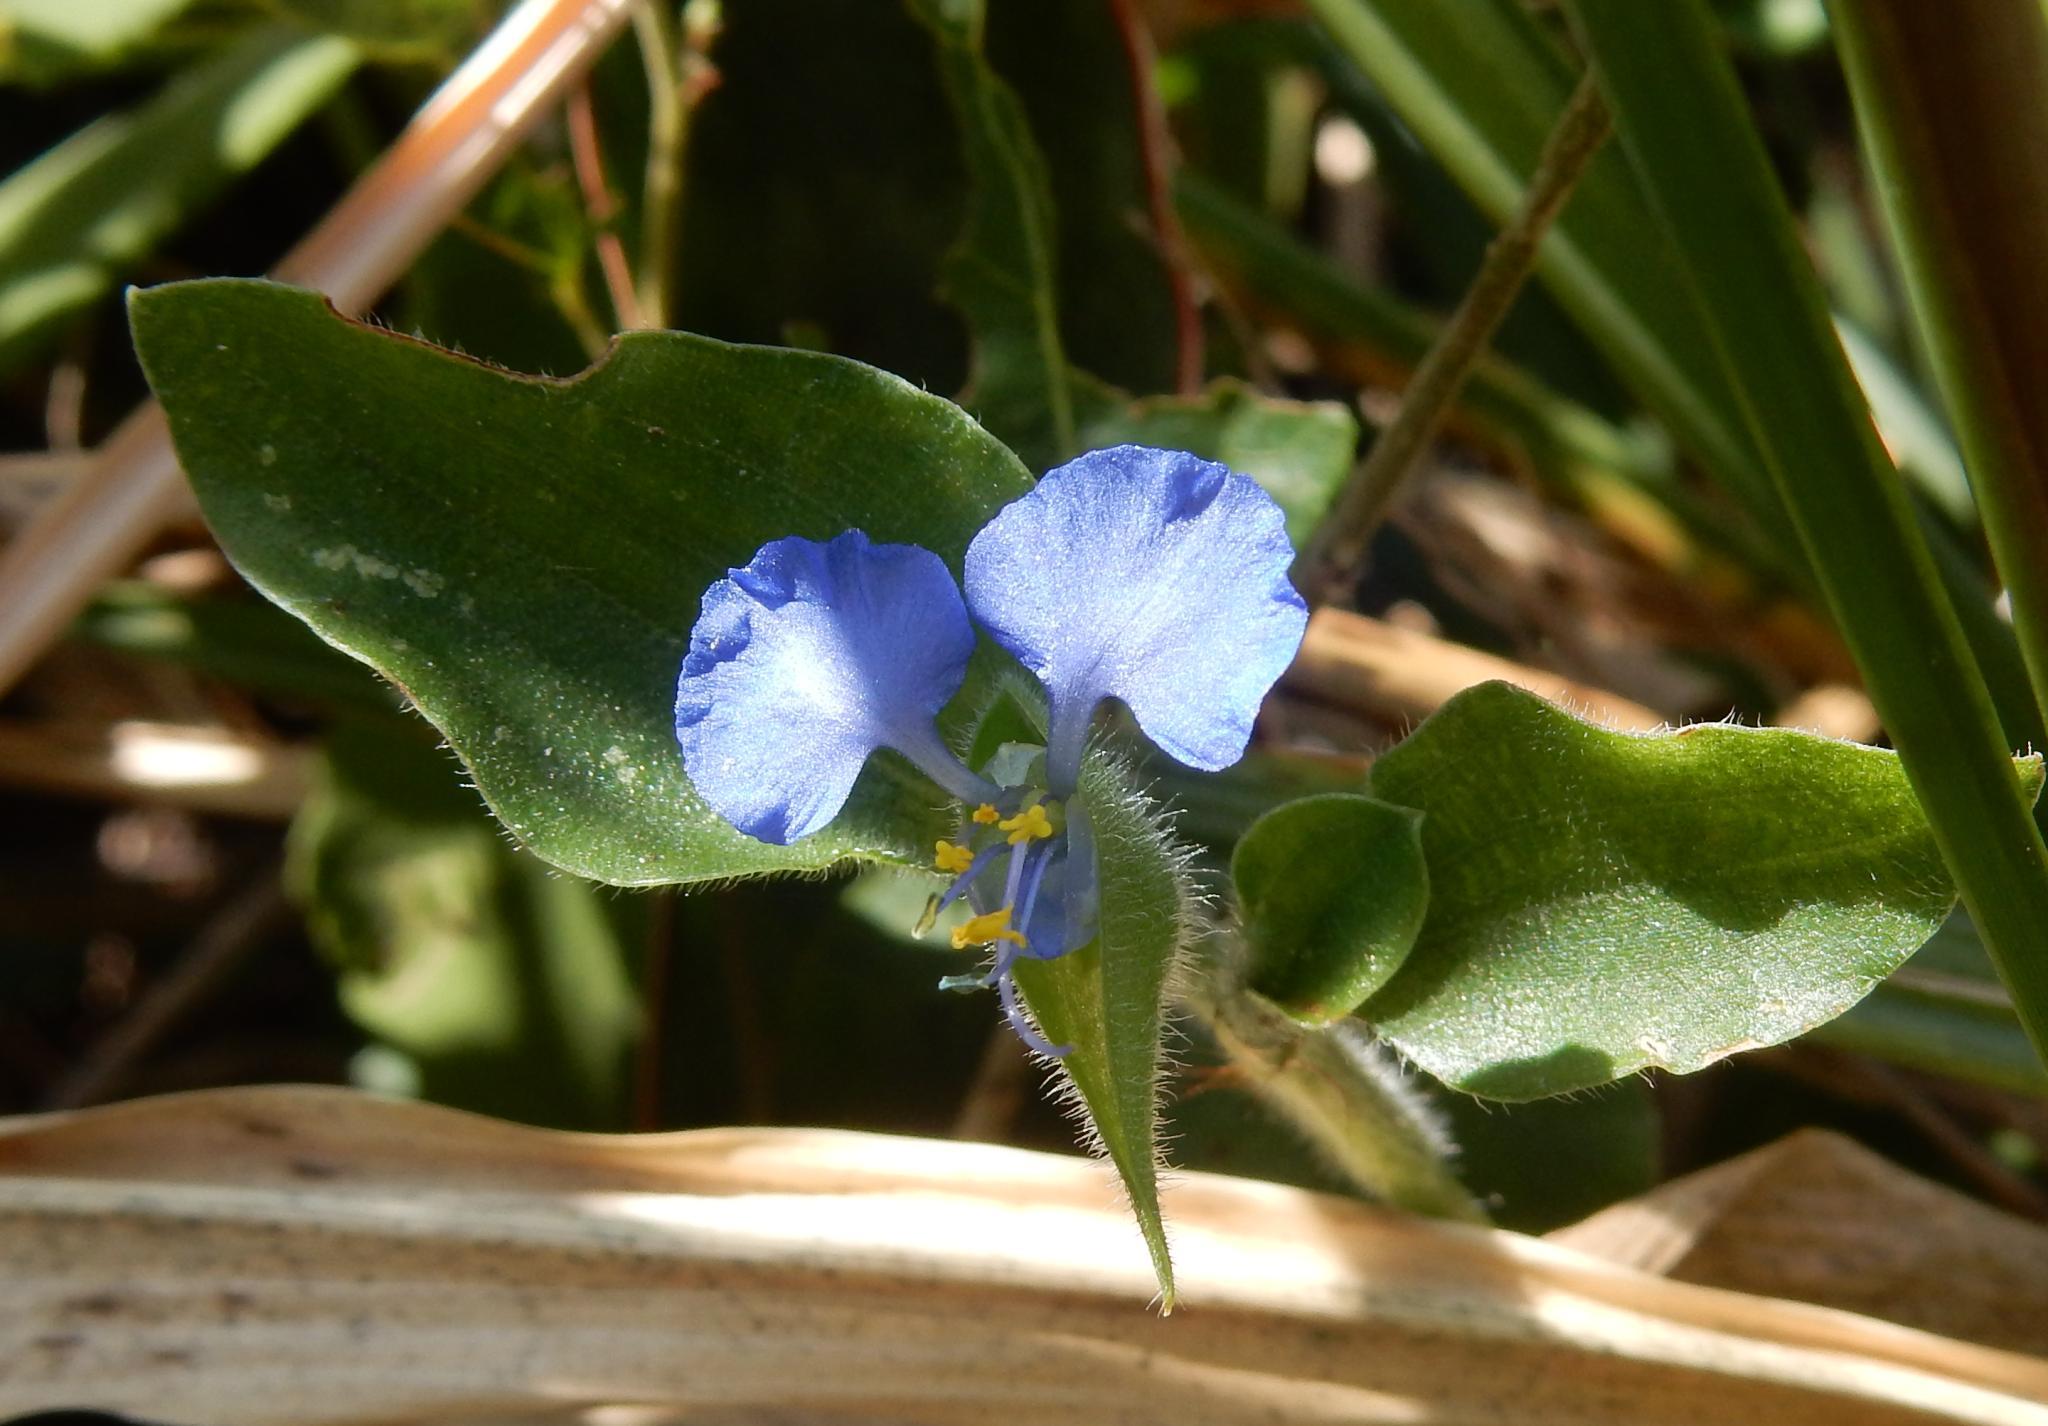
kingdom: Plantae
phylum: Tracheophyta
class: Liliopsida
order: Commelinales
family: Commelinaceae
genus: Commelina
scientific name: Commelina benghalensis
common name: Jio
